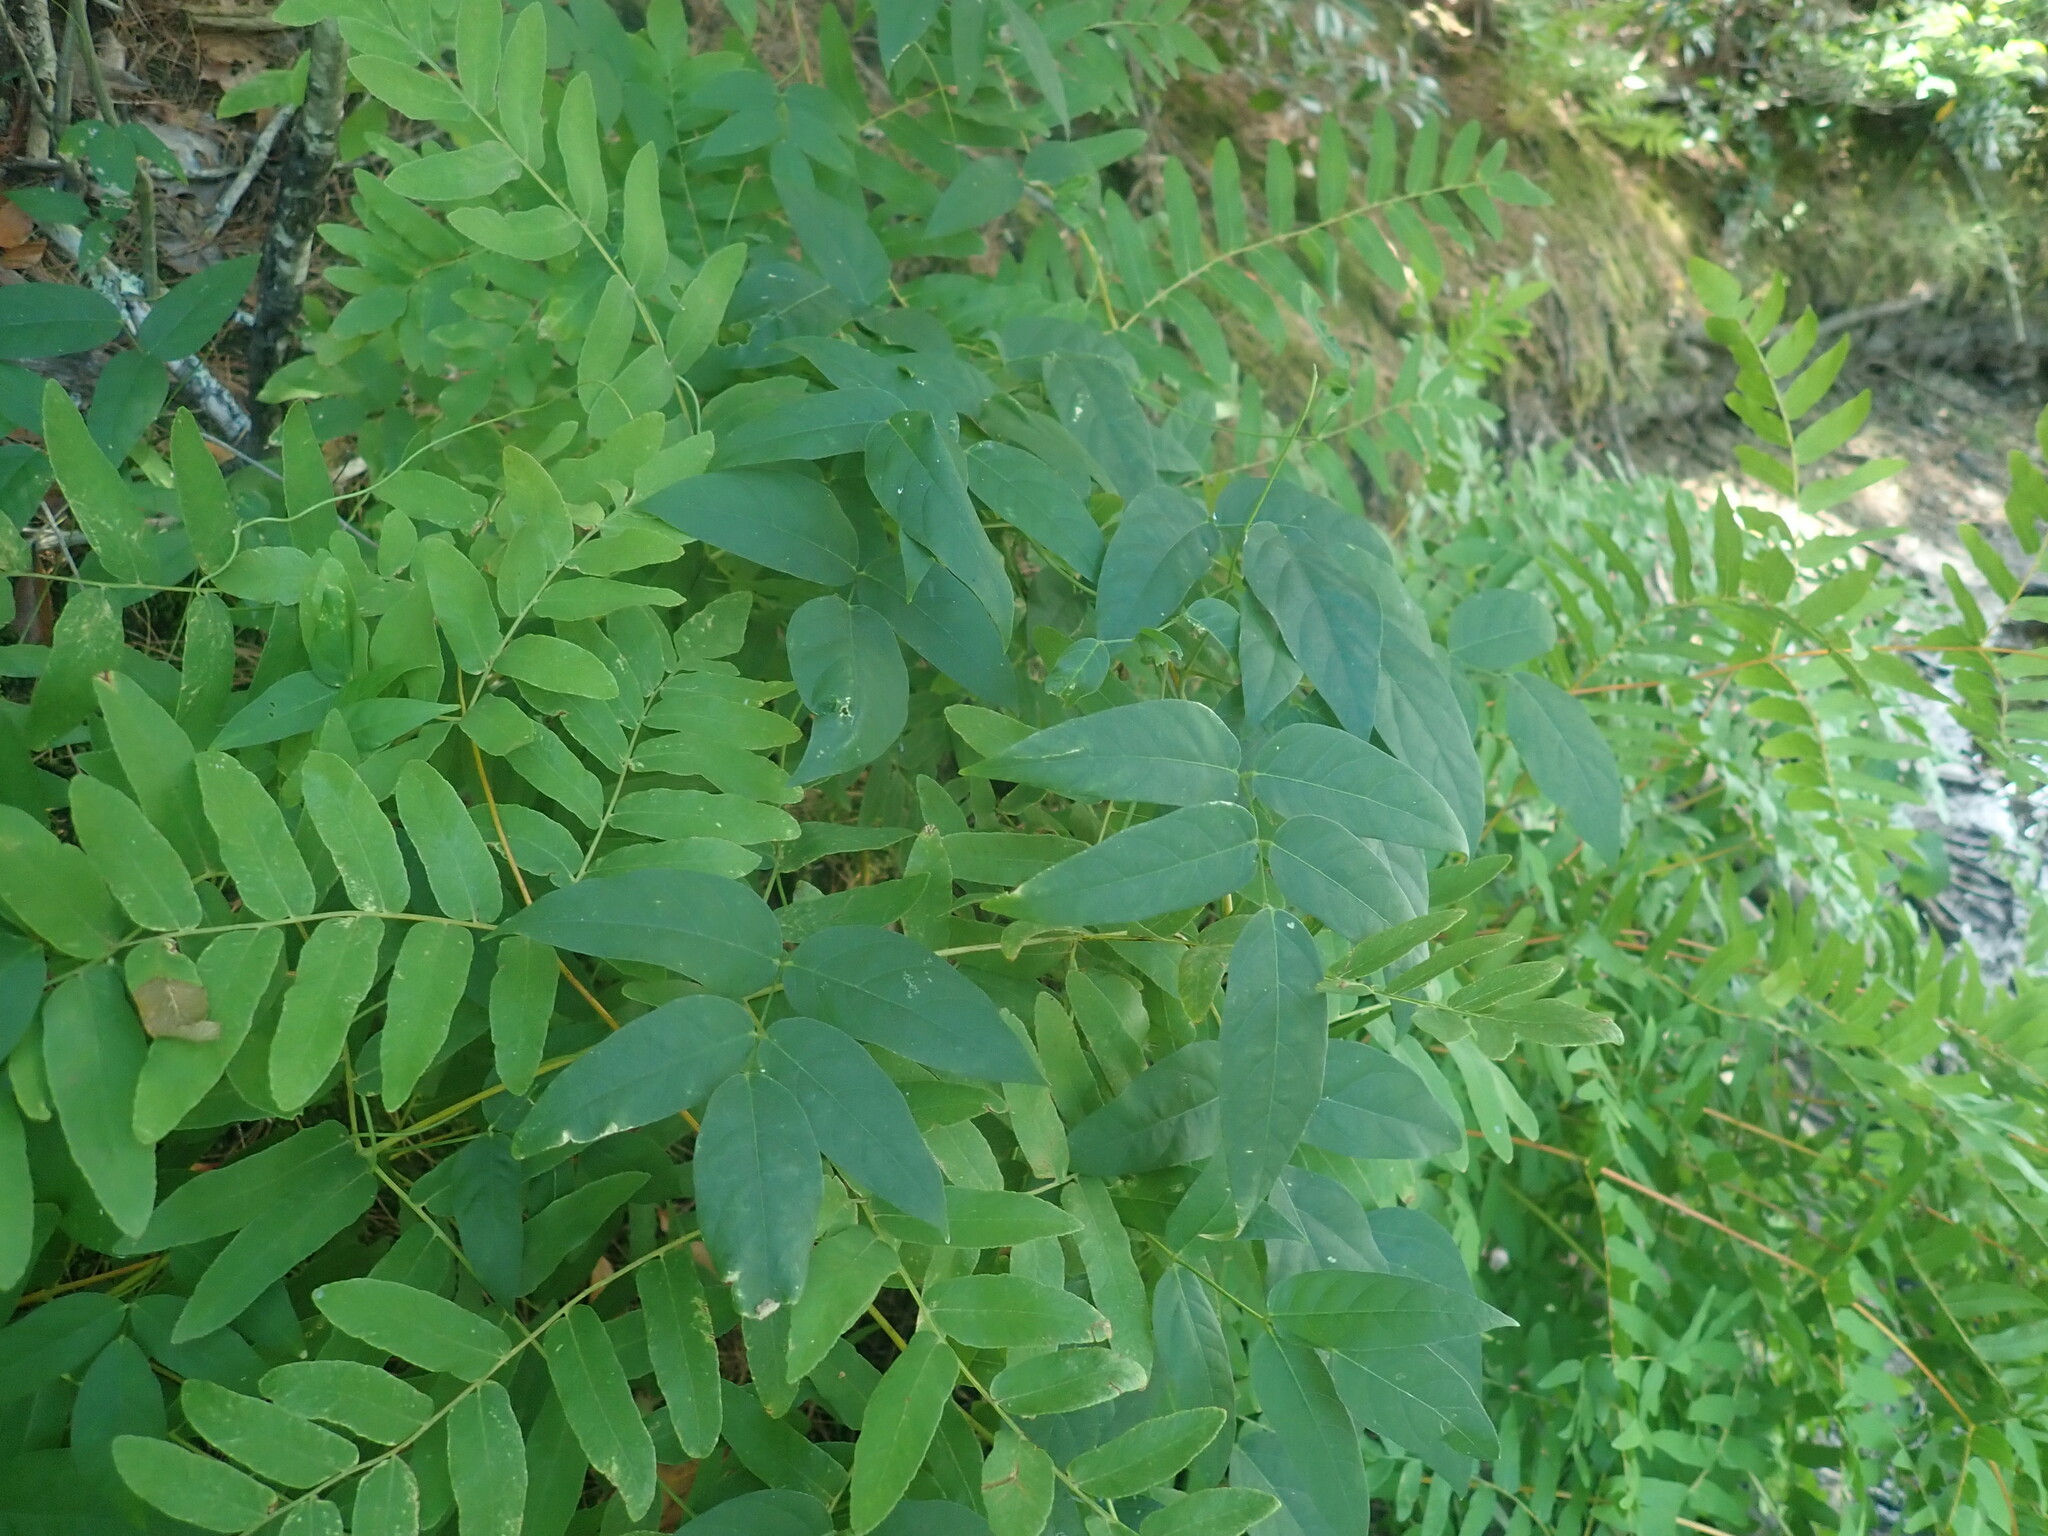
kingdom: Plantae
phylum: Tracheophyta
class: Magnoliopsida
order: Fabales
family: Fabaceae
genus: Apios
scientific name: Apios americana
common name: American potato-bean
